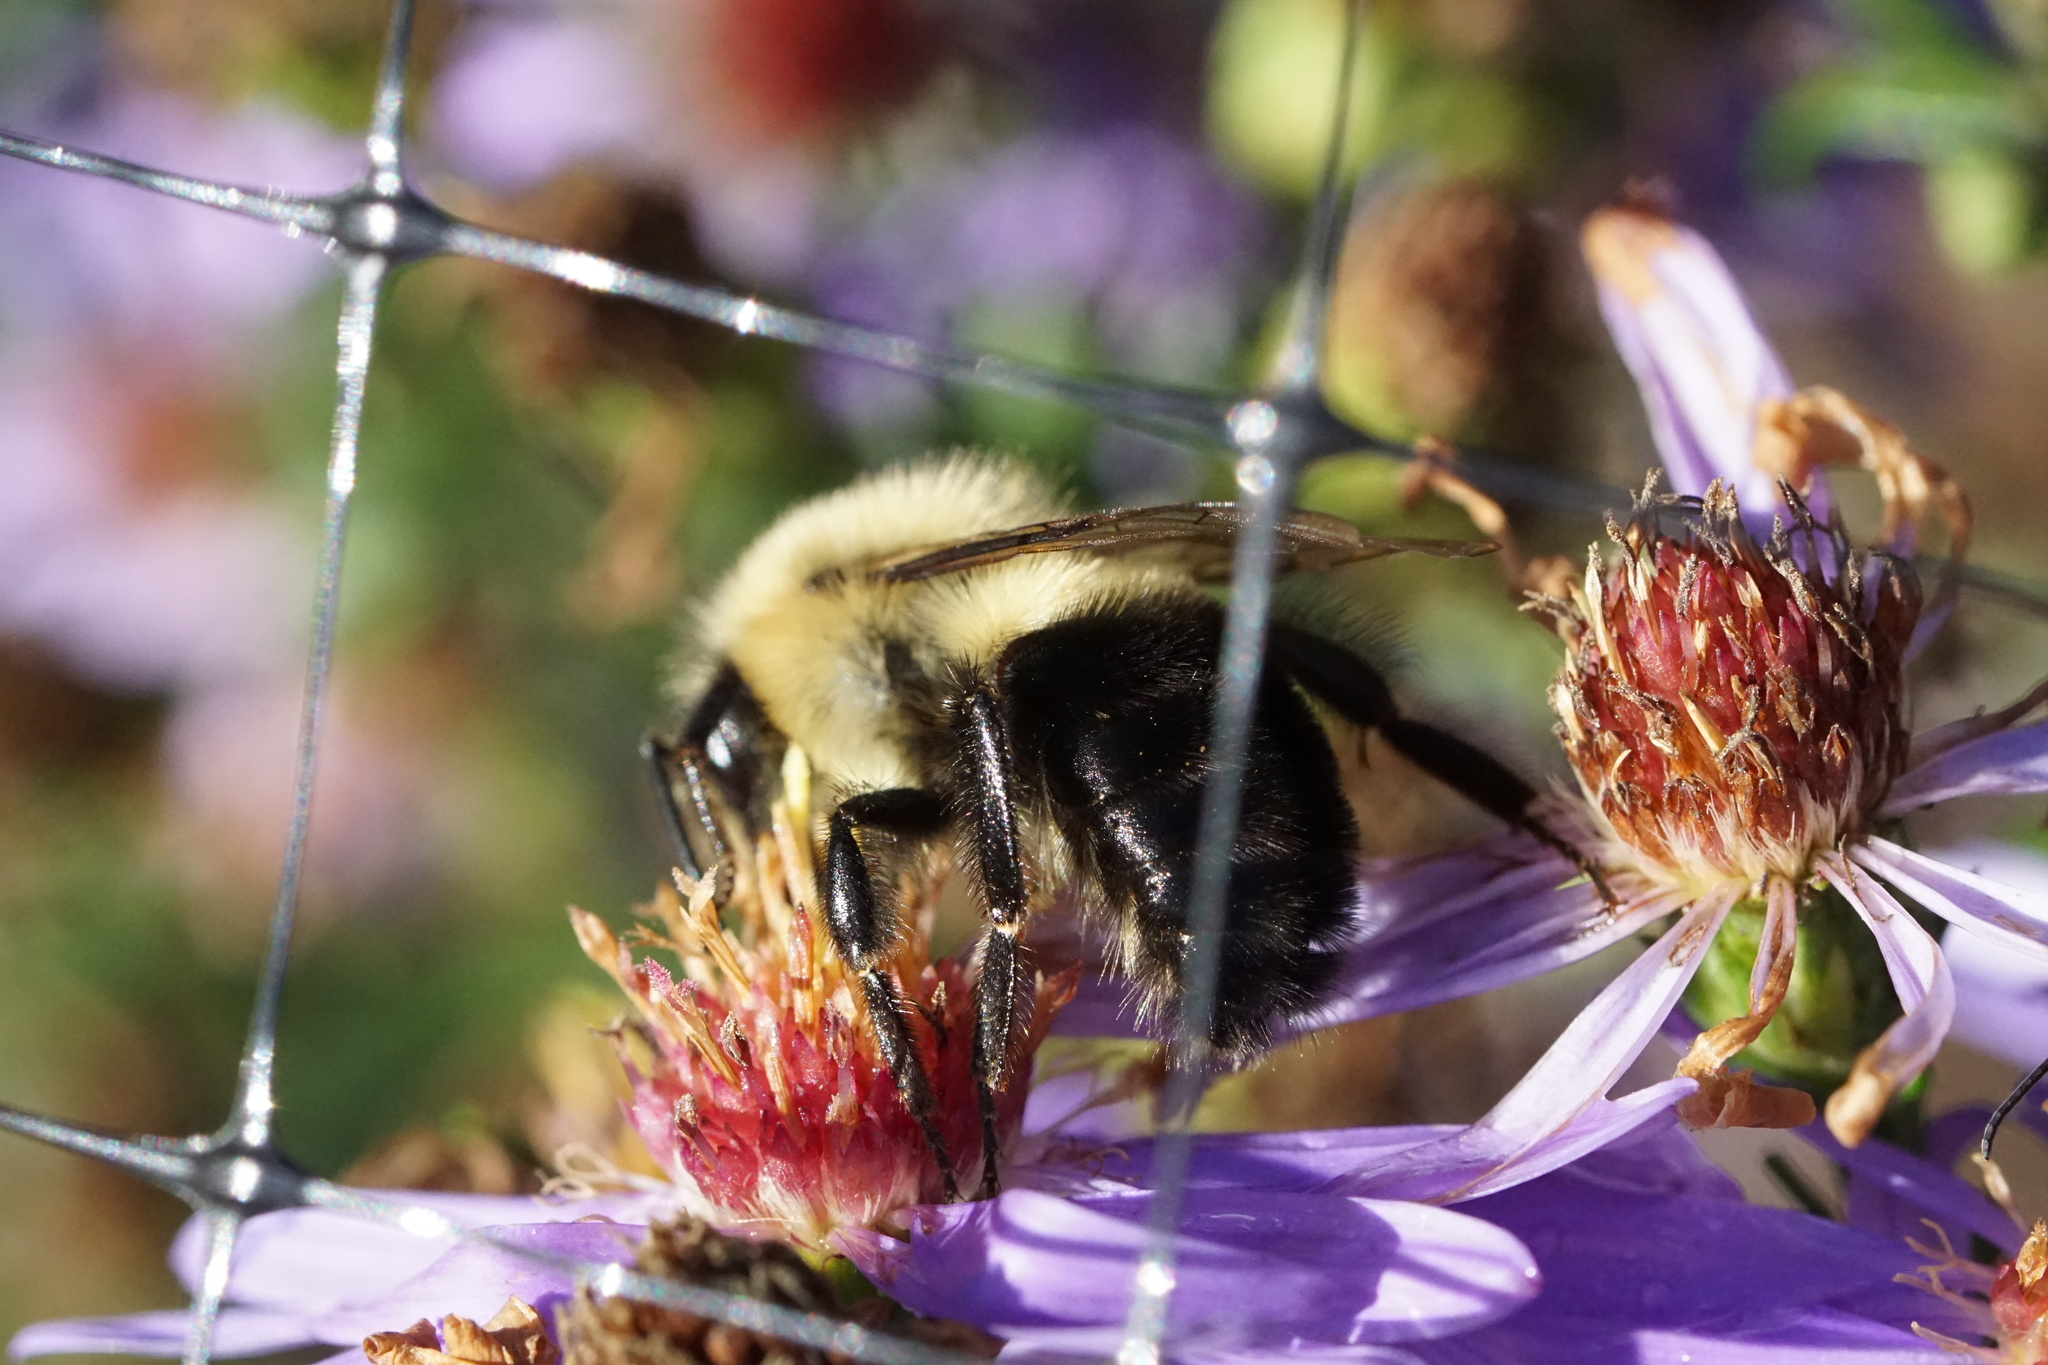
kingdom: Animalia
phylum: Arthropoda
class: Insecta
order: Hymenoptera
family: Apidae
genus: Bombus
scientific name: Bombus impatiens
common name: Common eastern bumble bee
